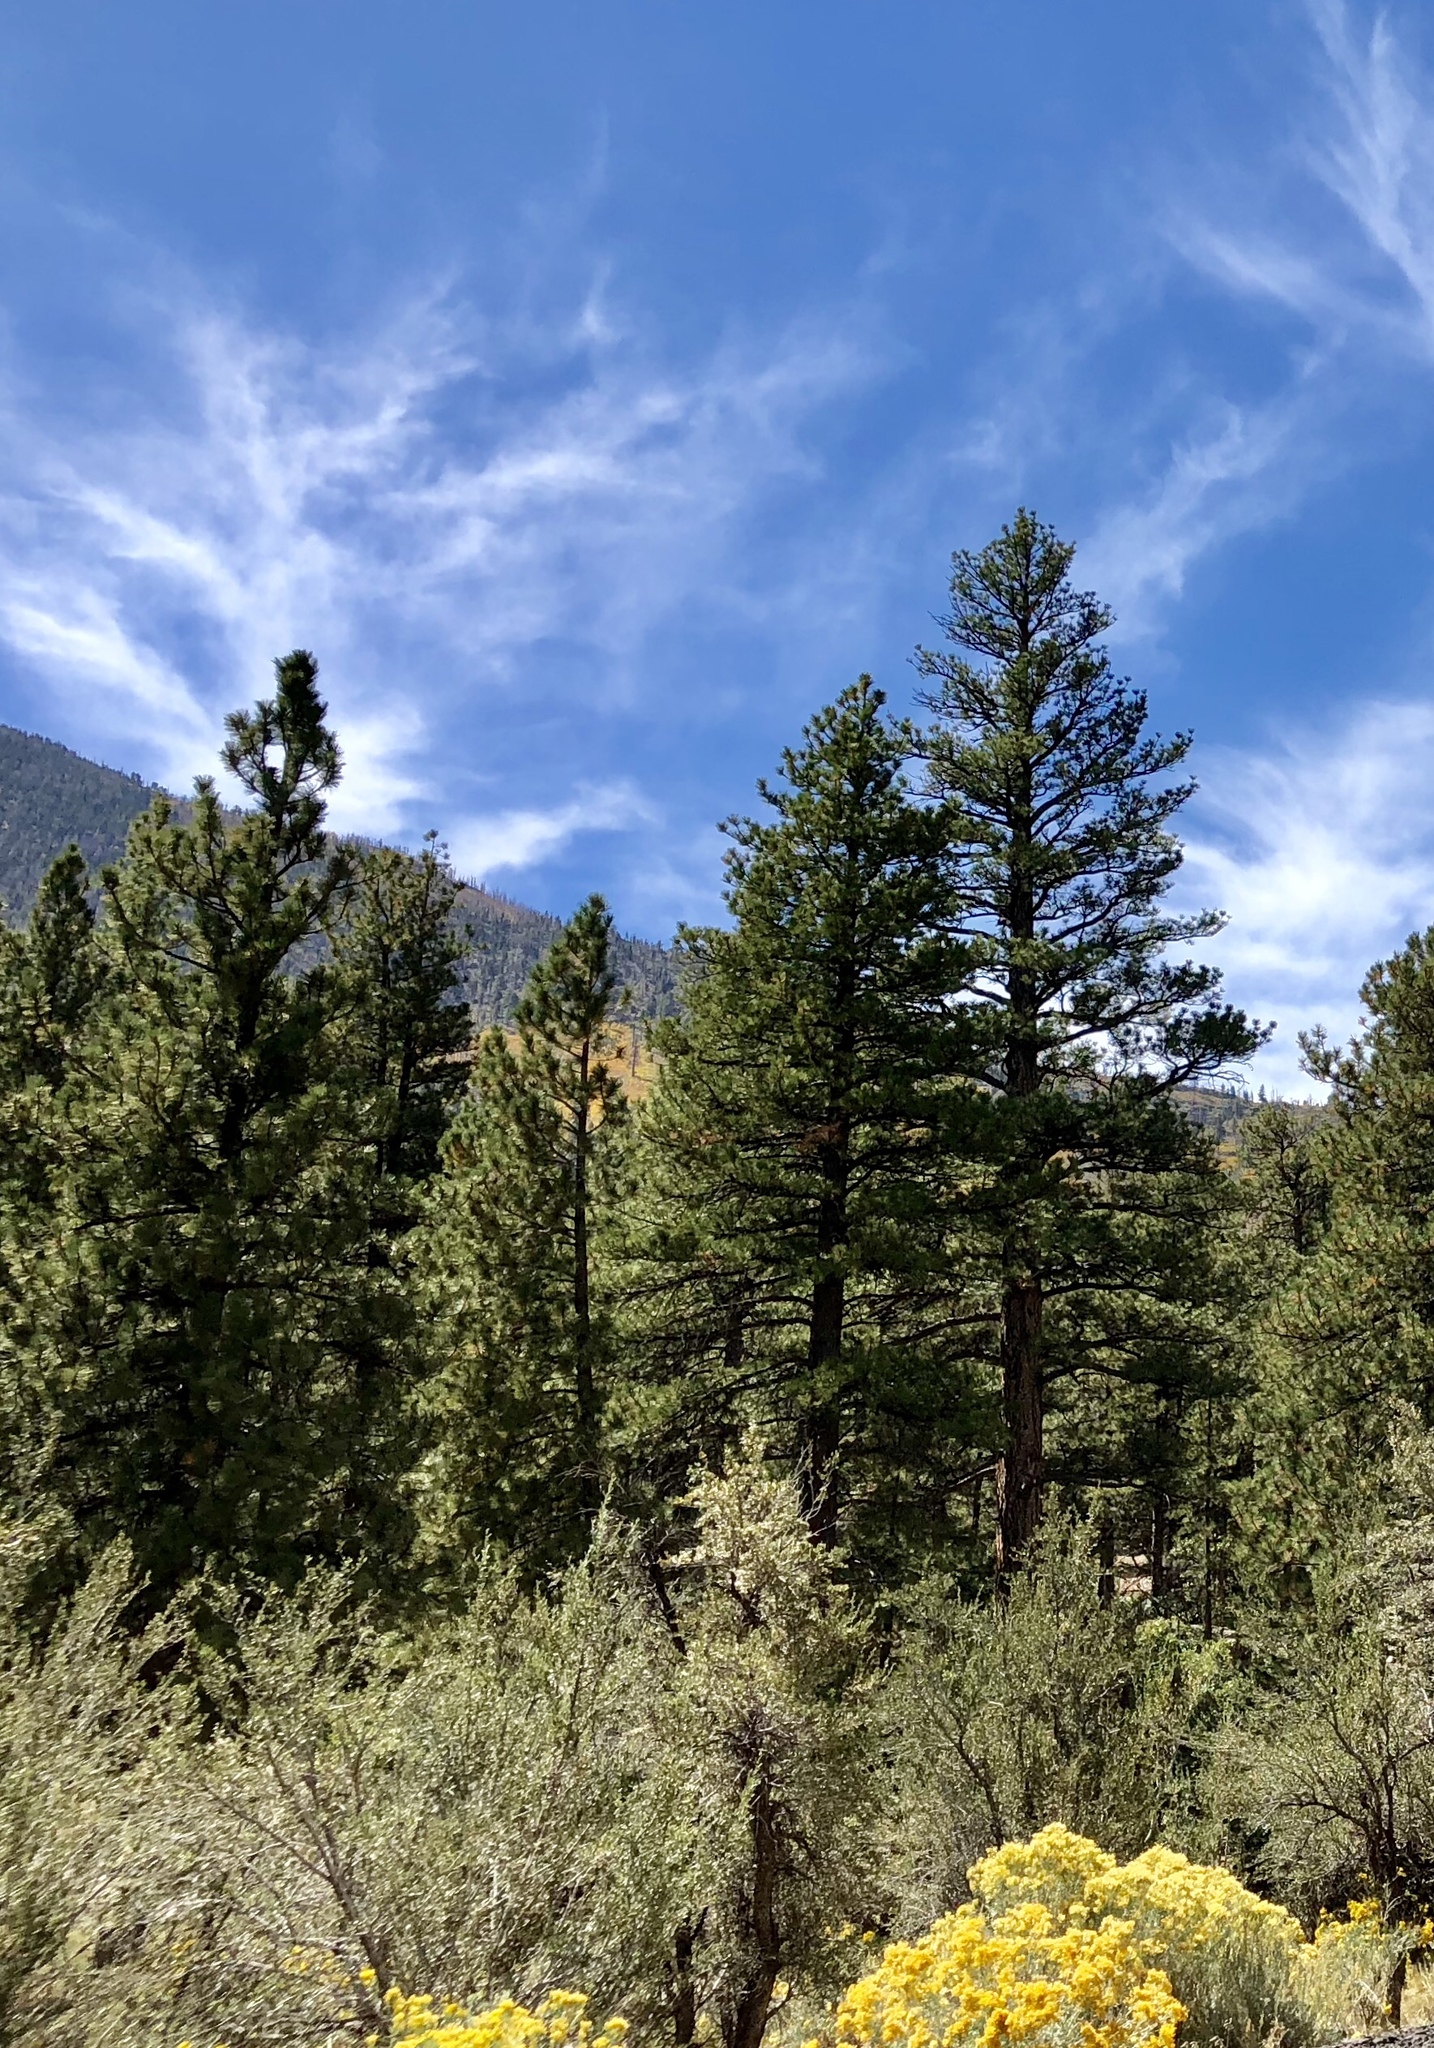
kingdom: Plantae
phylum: Tracheophyta
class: Pinopsida
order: Pinales
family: Pinaceae
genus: Pinus
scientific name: Pinus ponderosa
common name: Western yellow-pine
